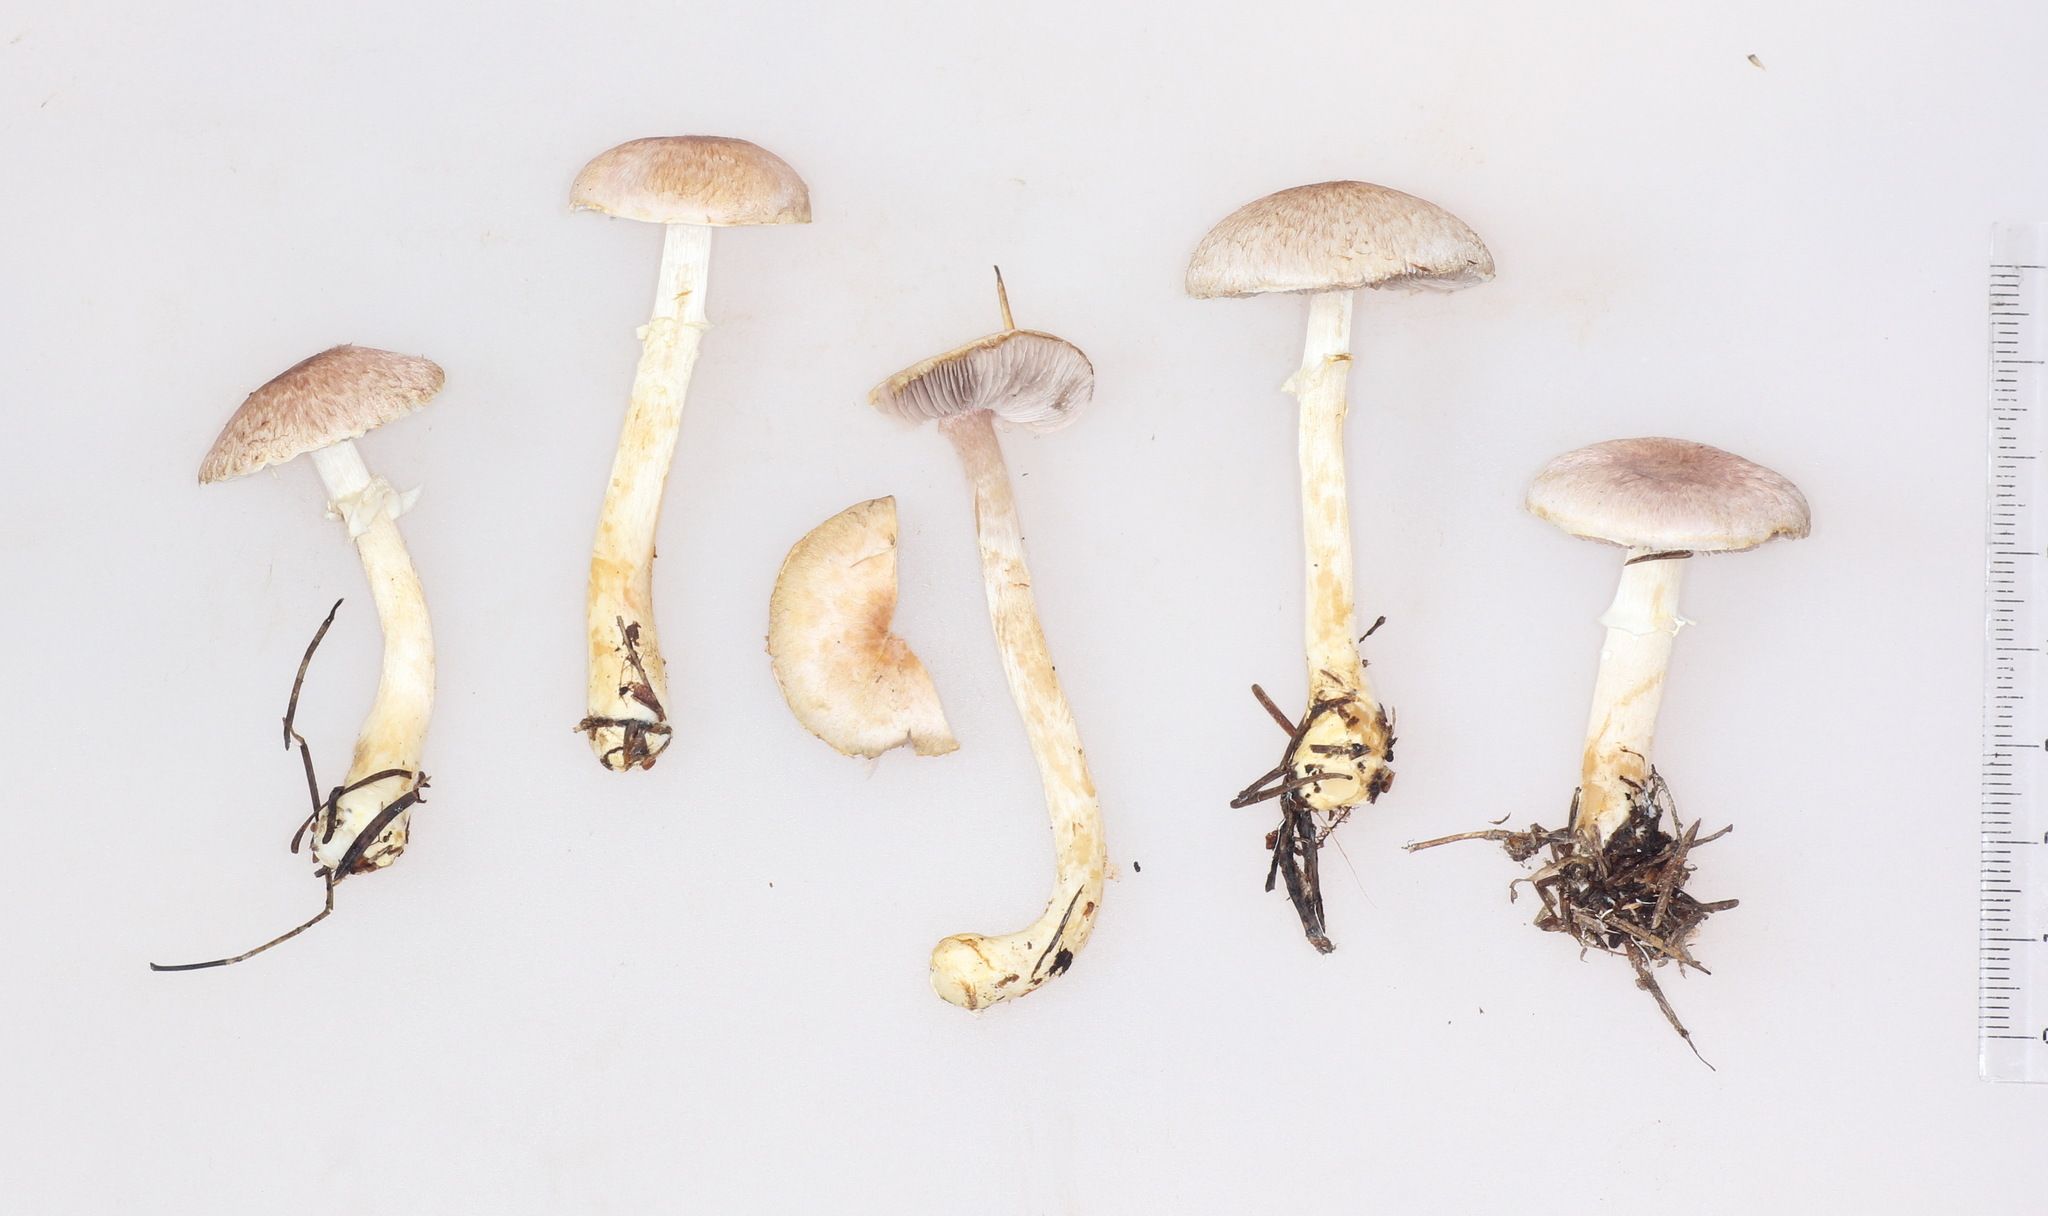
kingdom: Fungi
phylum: Basidiomycota
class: Agaricomycetes
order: Agaricales
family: Agaricaceae
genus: Agaricus
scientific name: Agaricus semotus
